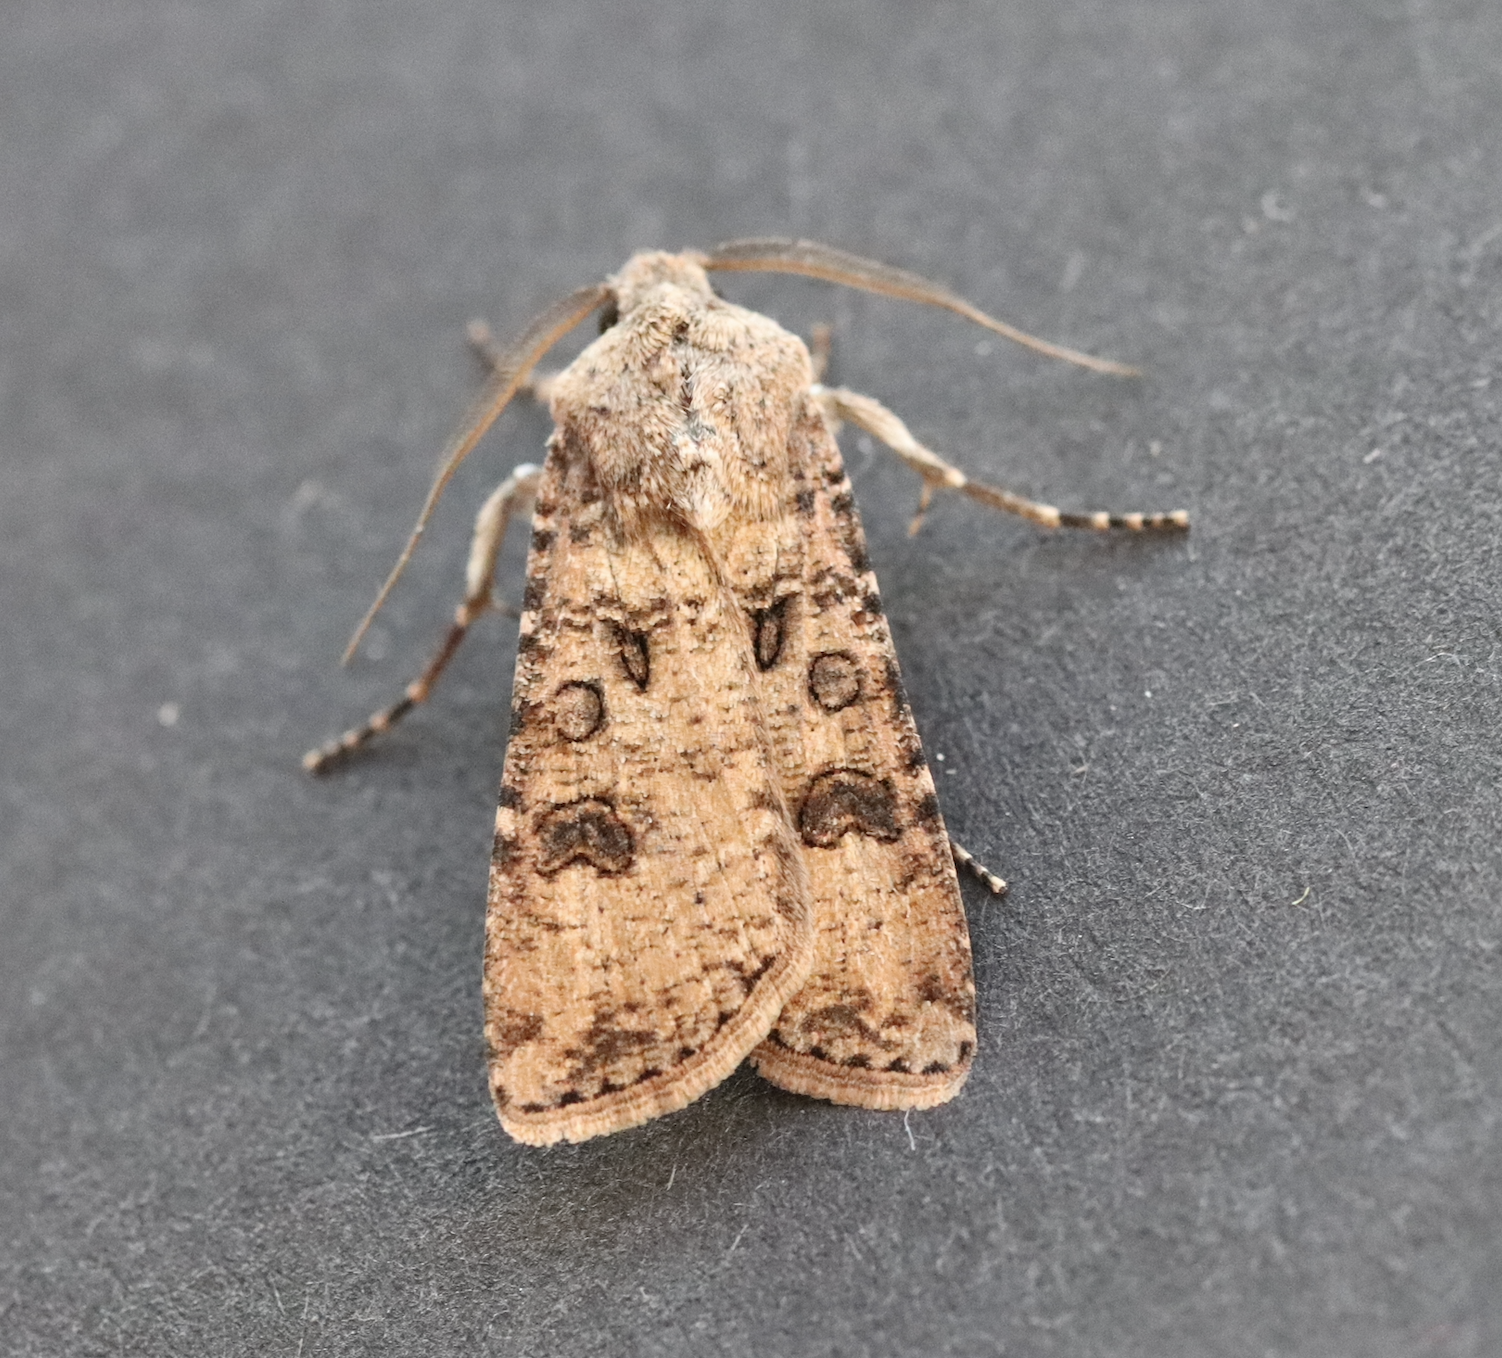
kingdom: Animalia
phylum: Arthropoda
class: Insecta
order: Lepidoptera
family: Noctuidae
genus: Agrotis
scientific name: Agrotis segetum
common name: Turnip moth
